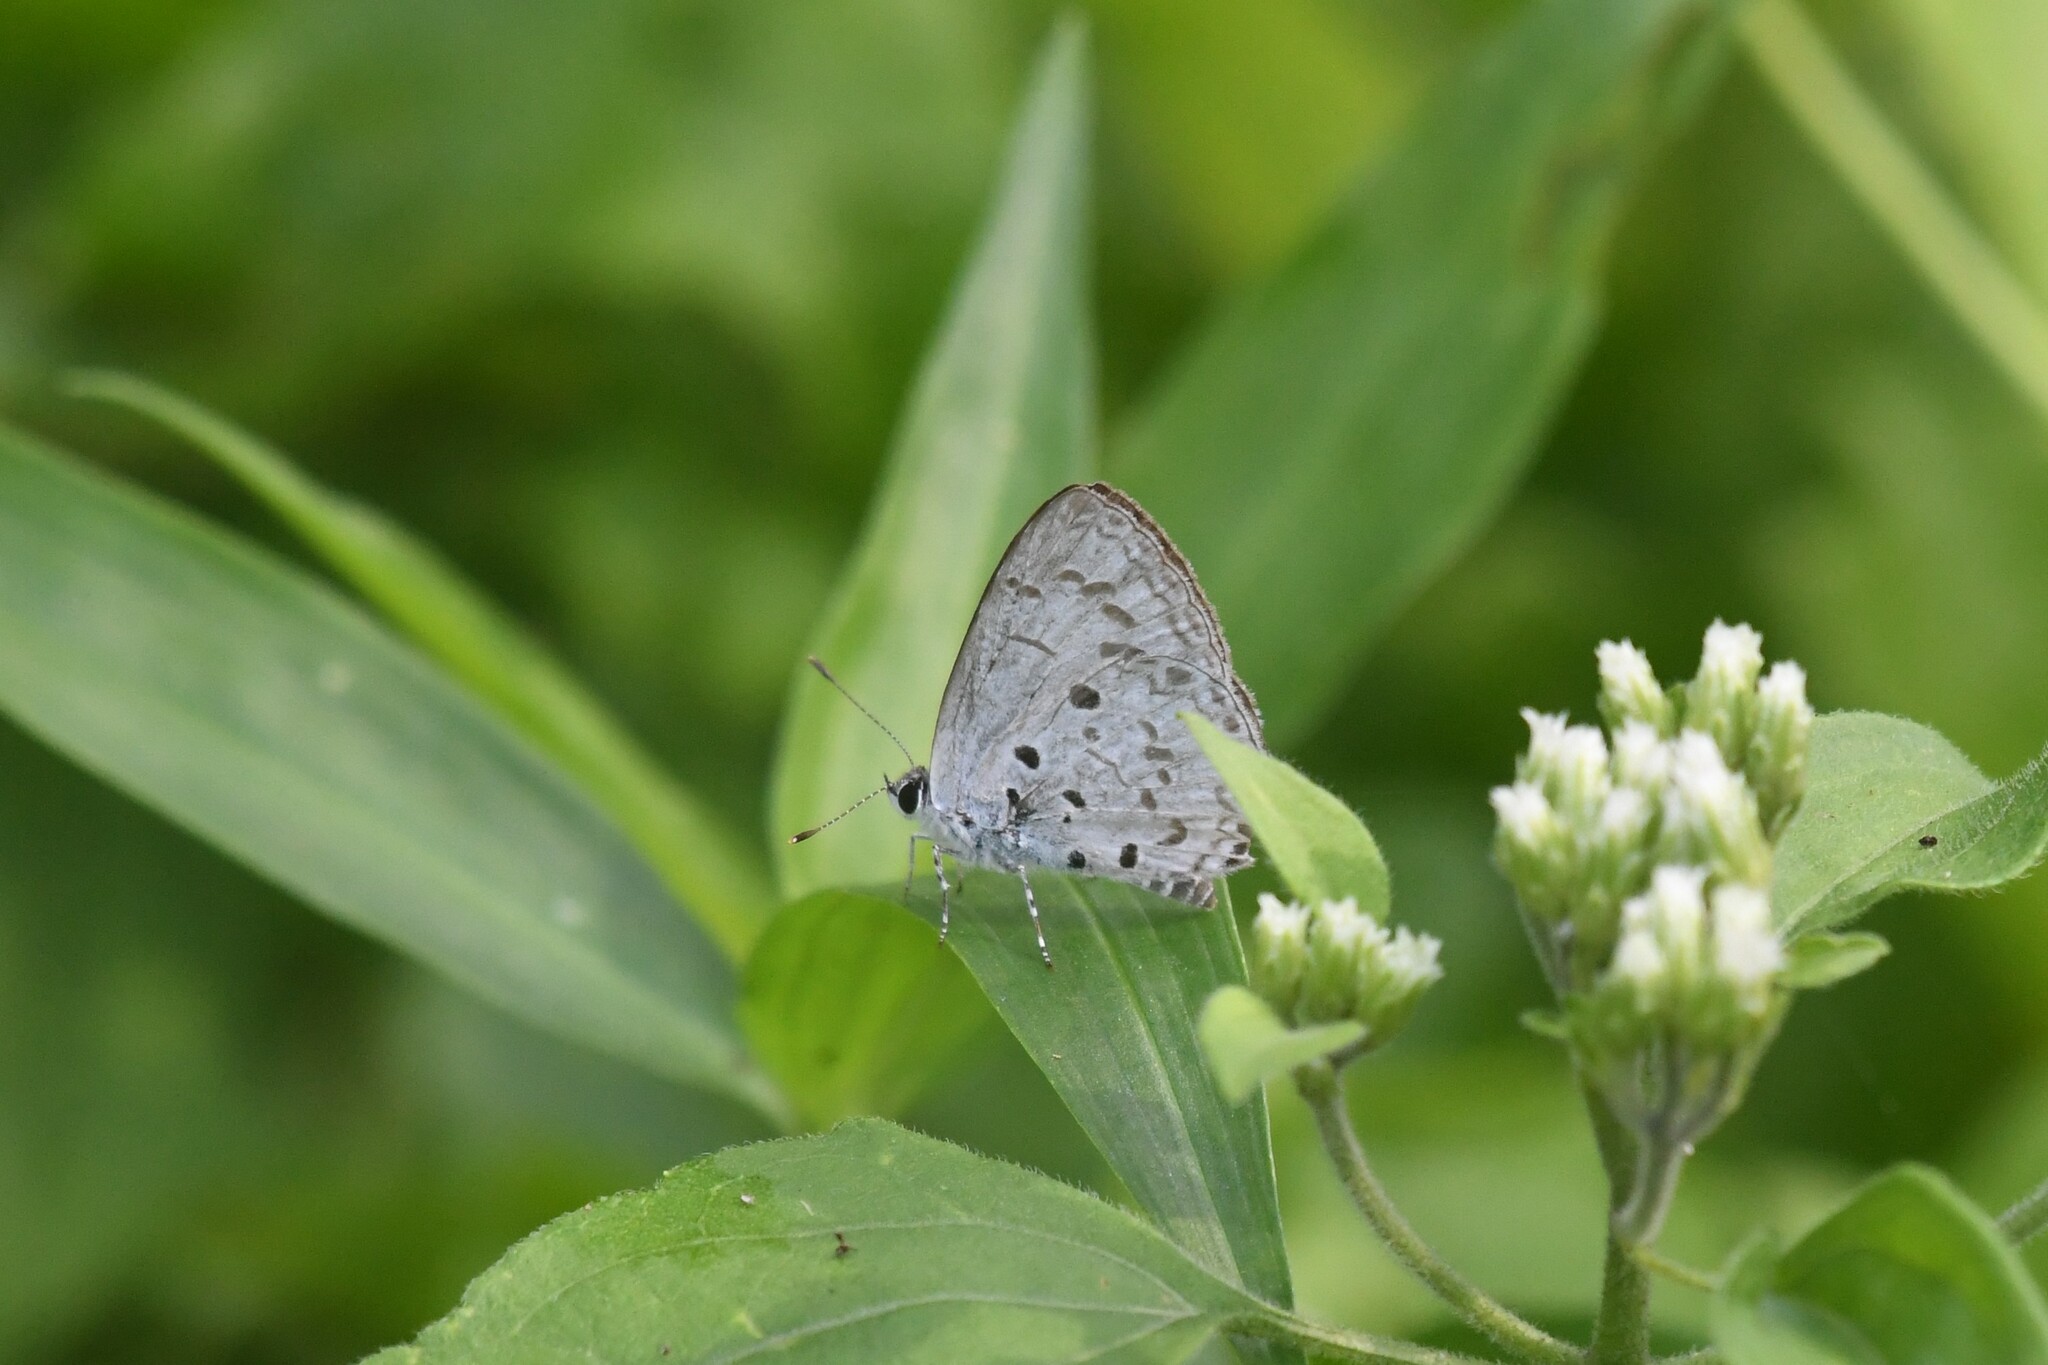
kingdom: Animalia
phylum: Arthropoda
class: Insecta
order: Lepidoptera
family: Lycaenidae
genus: Acytolepis
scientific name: Acytolepis puspa
